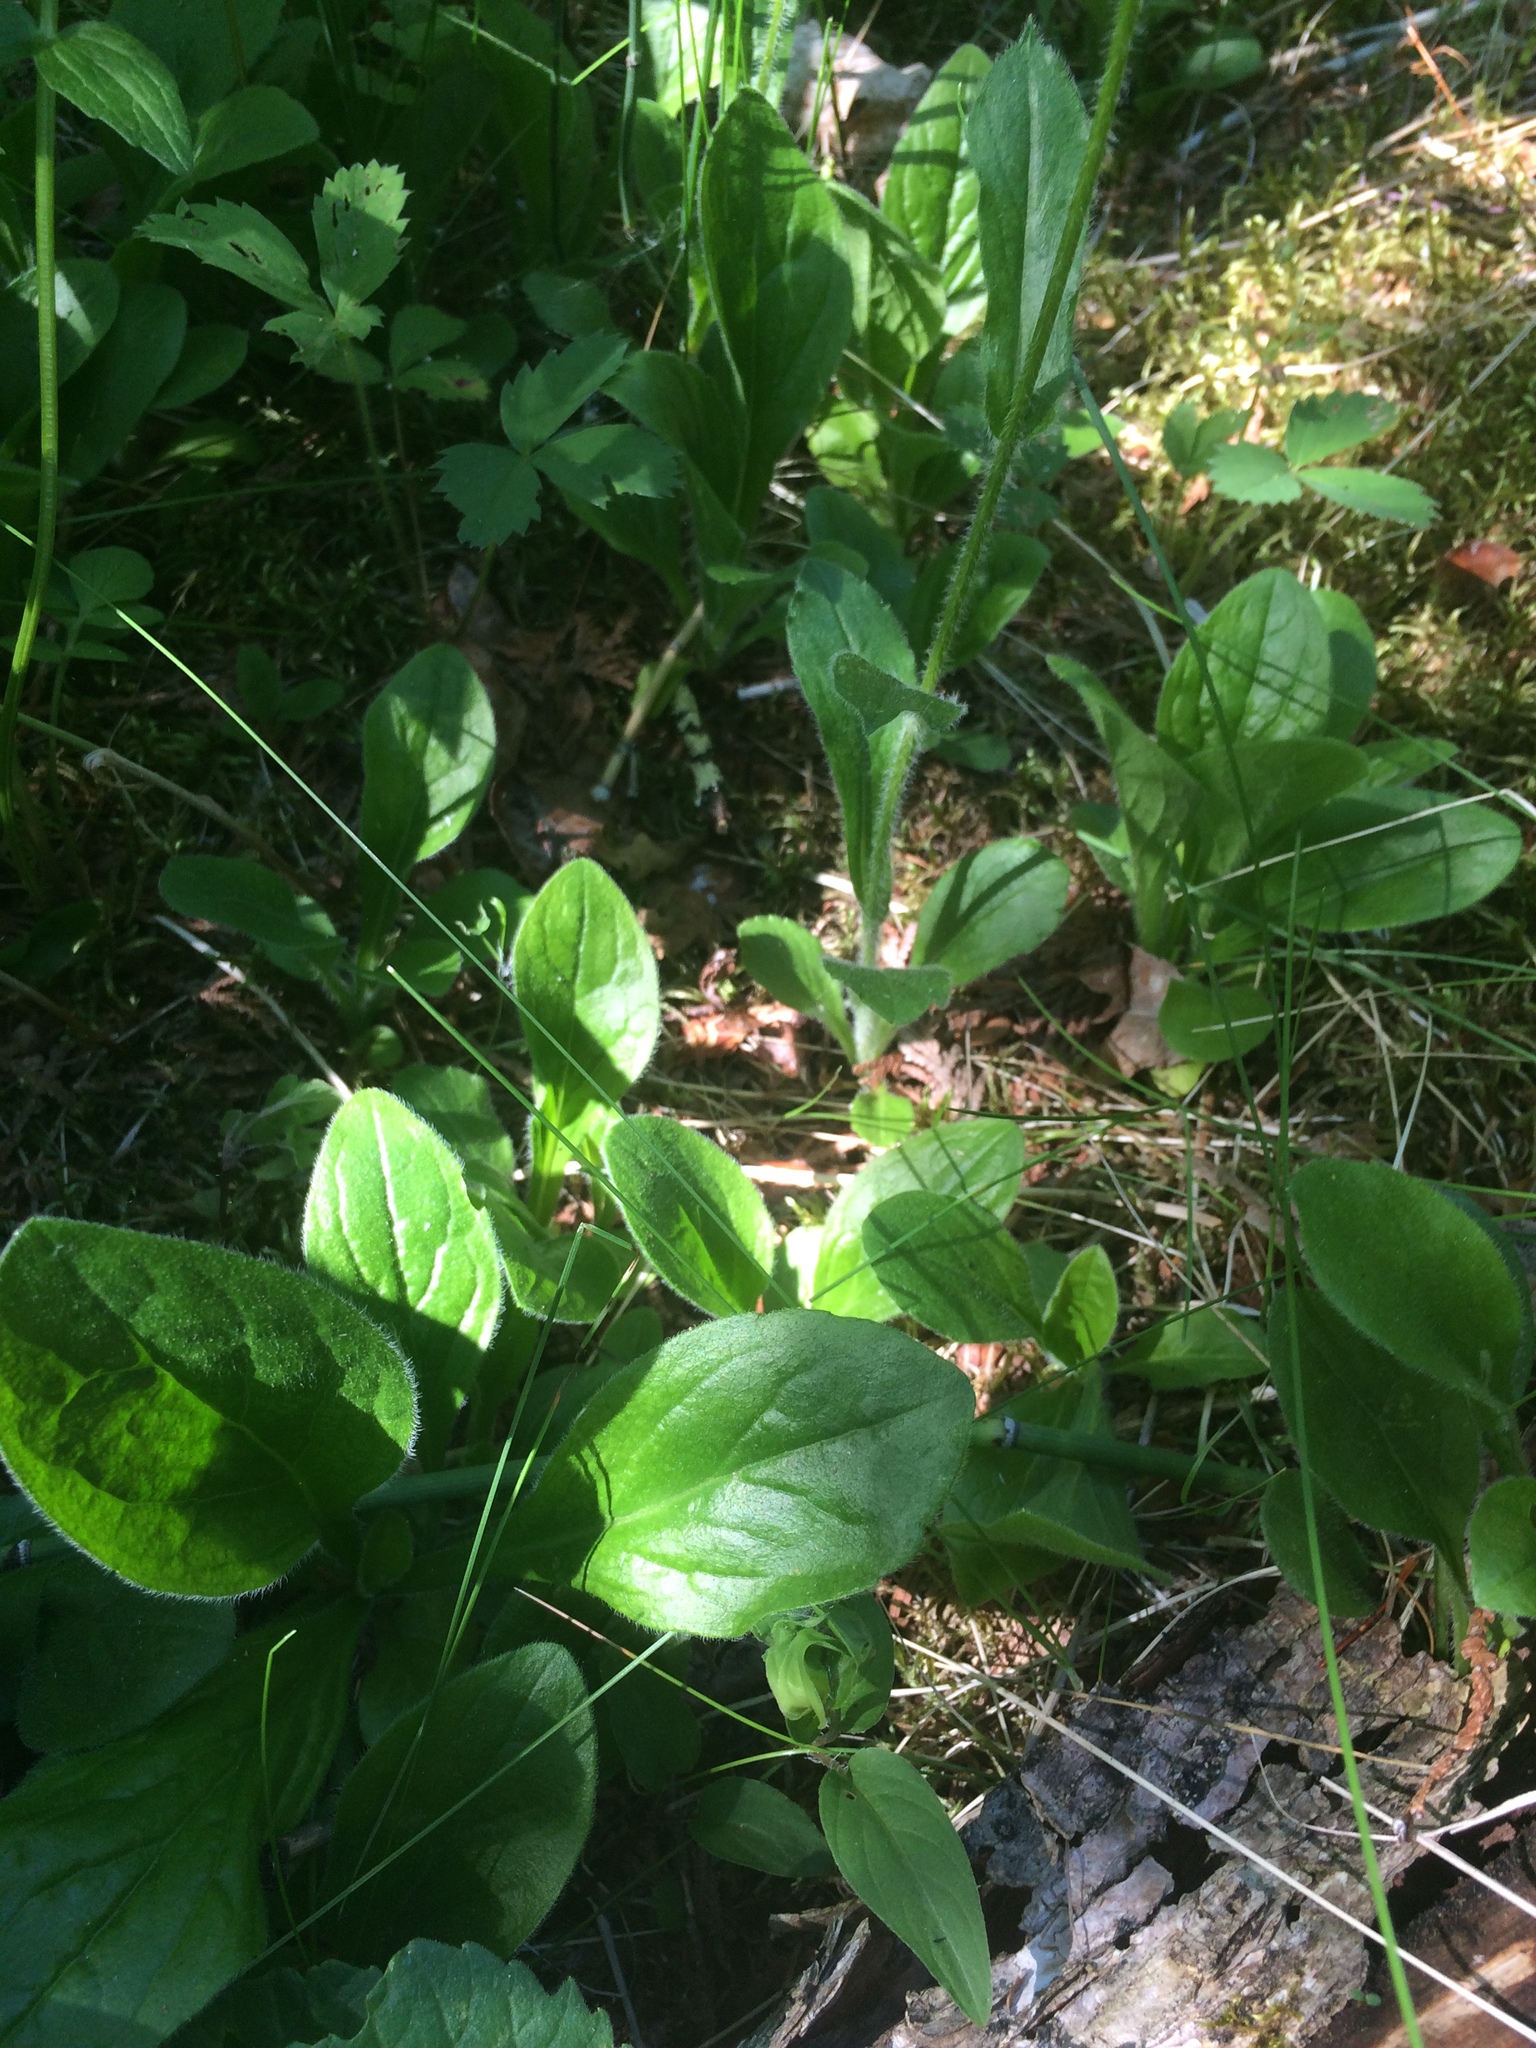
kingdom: Plantae
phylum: Tracheophyta
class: Magnoliopsida
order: Asterales
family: Asteraceae
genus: Erigeron
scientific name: Erigeron pulchellus
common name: Hairy fleabane
